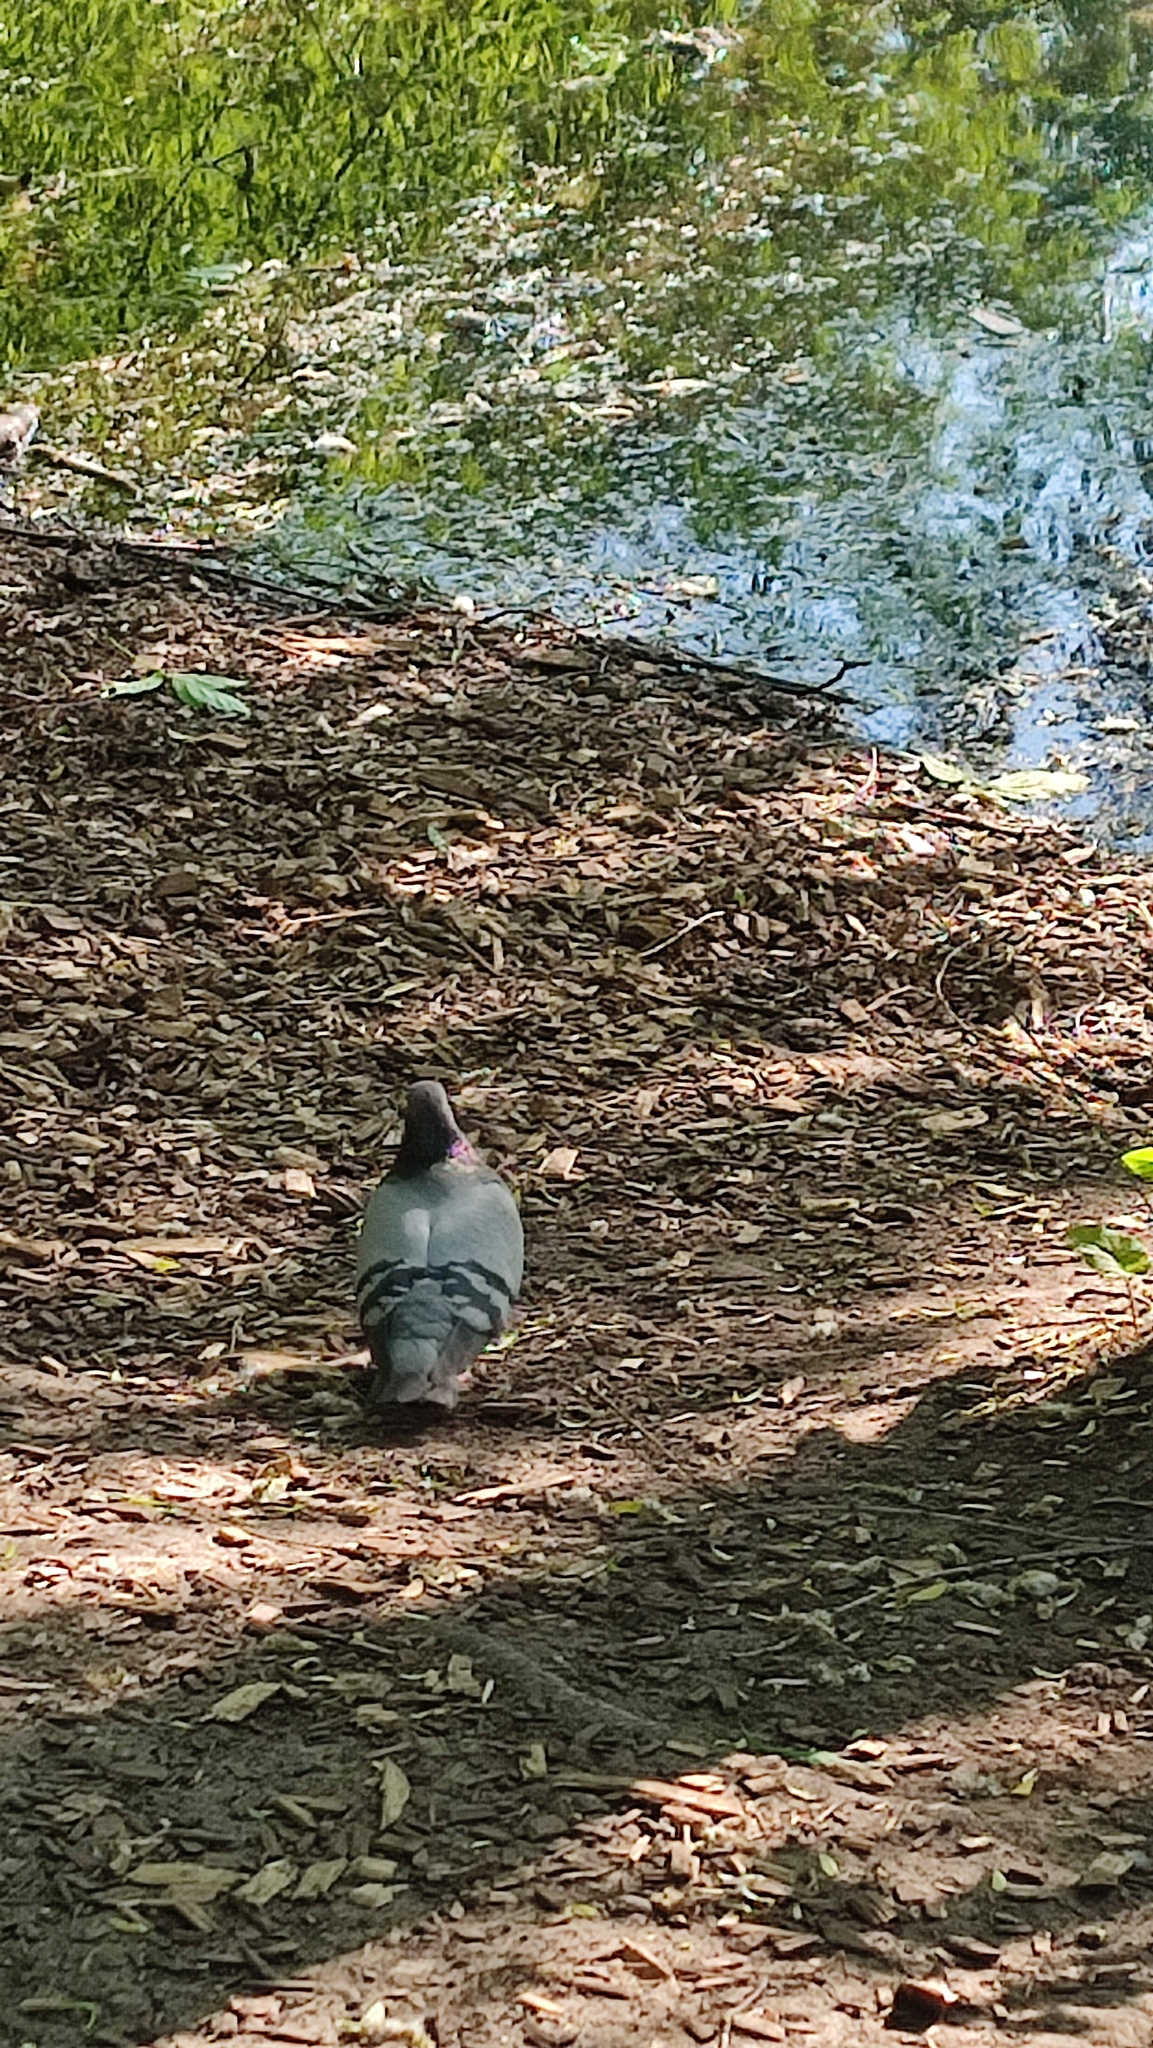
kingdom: Animalia
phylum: Chordata
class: Aves
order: Columbiformes
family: Columbidae
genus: Columba
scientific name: Columba livia
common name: Rock pigeon
